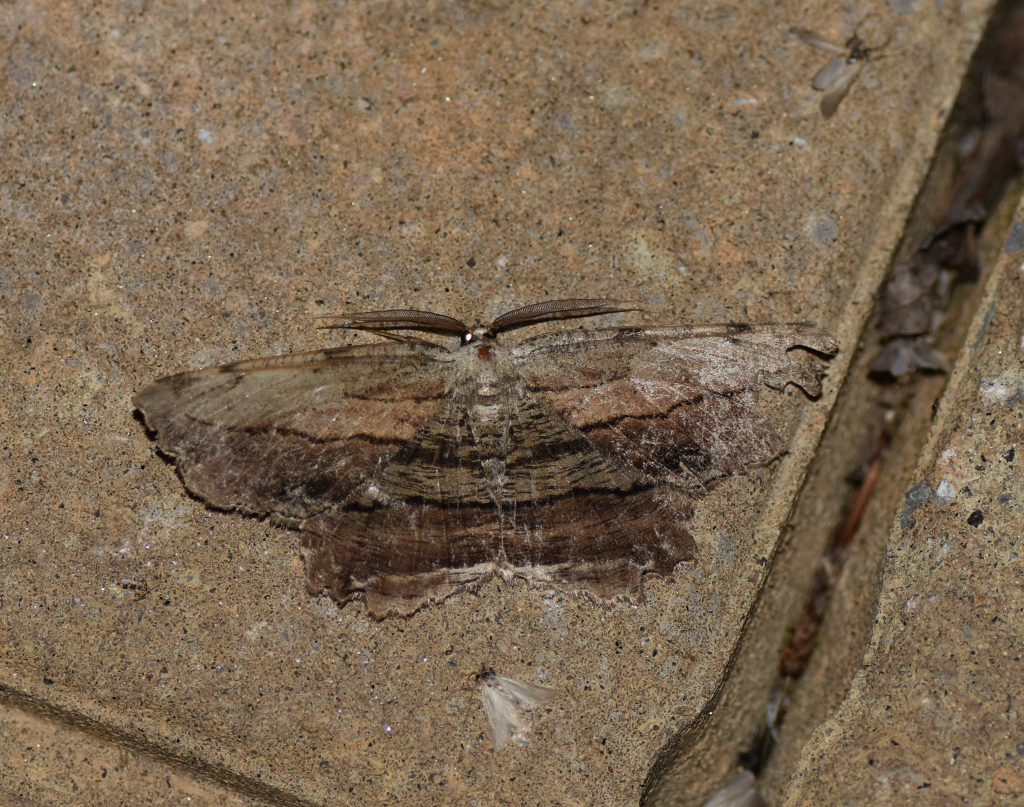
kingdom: Animalia
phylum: Arthropoda
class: Insecta
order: Lepidoptera
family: Geometridae
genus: Lytrosis
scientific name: Lytrosis unitaria
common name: Common lytrosis
